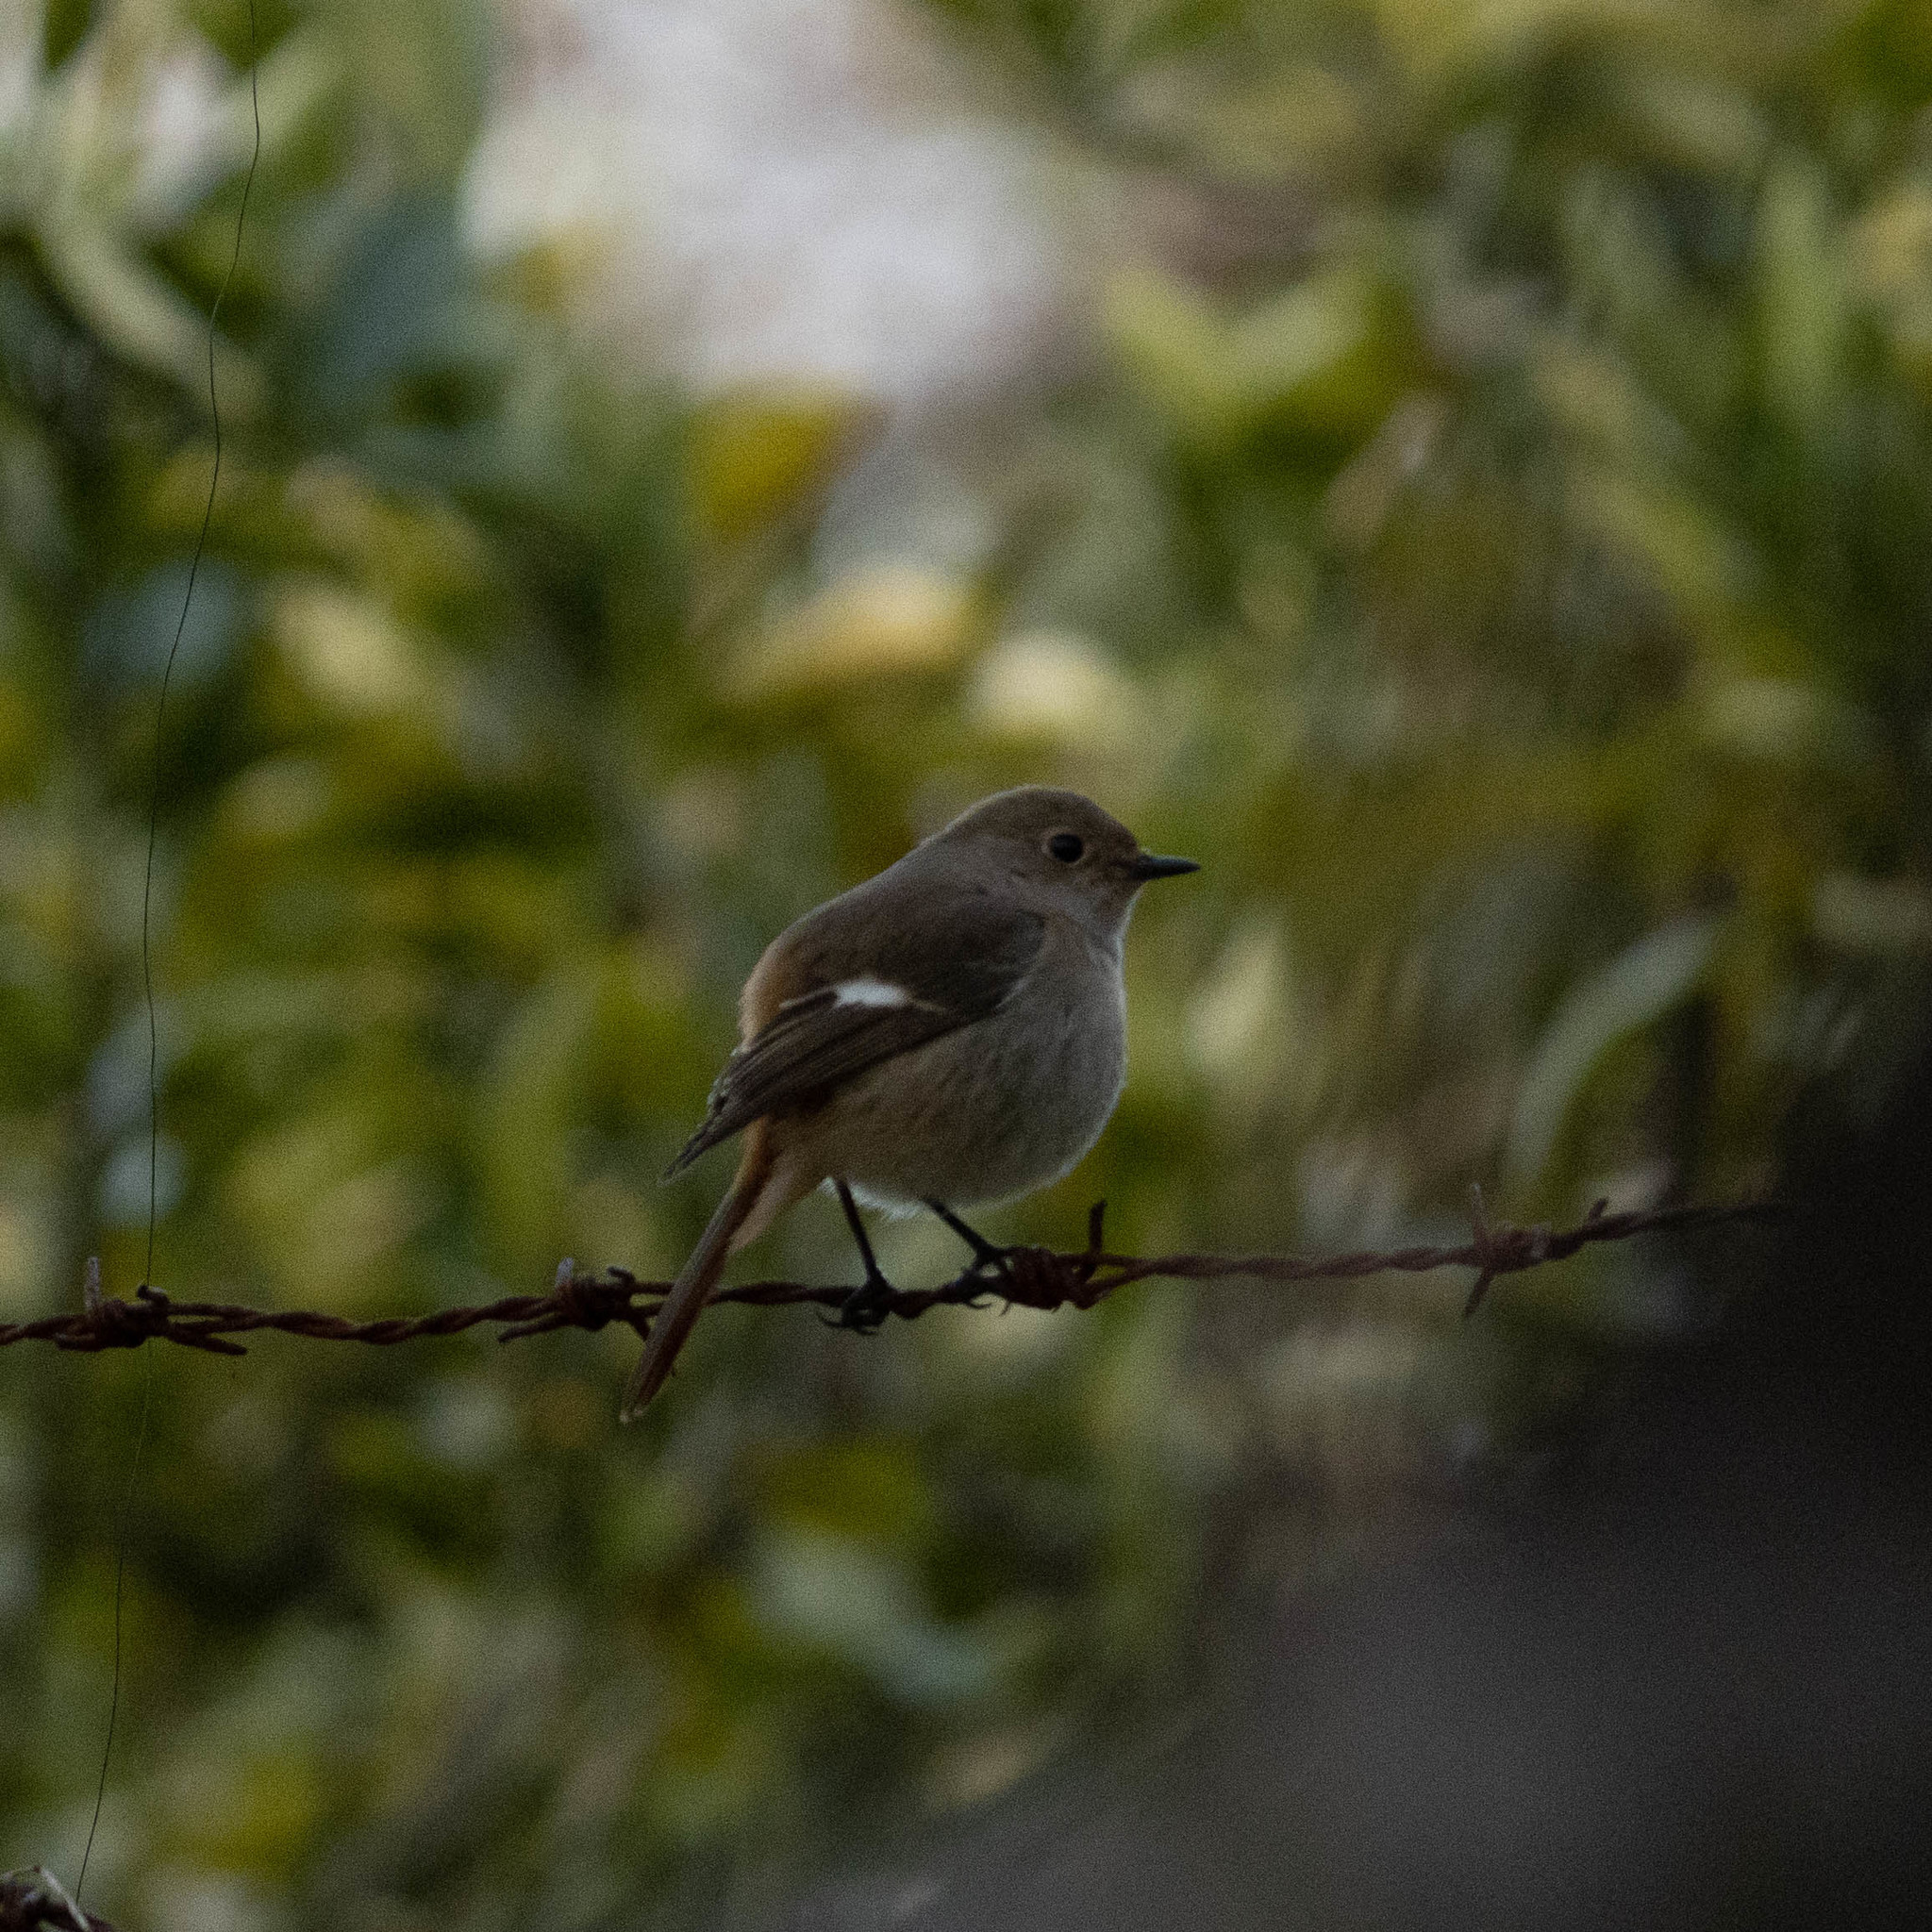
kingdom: Animalia
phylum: Chordata
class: Aves
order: Passeriformes
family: Muscicapidae
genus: Phoenicurus
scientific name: Phoenicurus auroreus
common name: Daurian redstart
